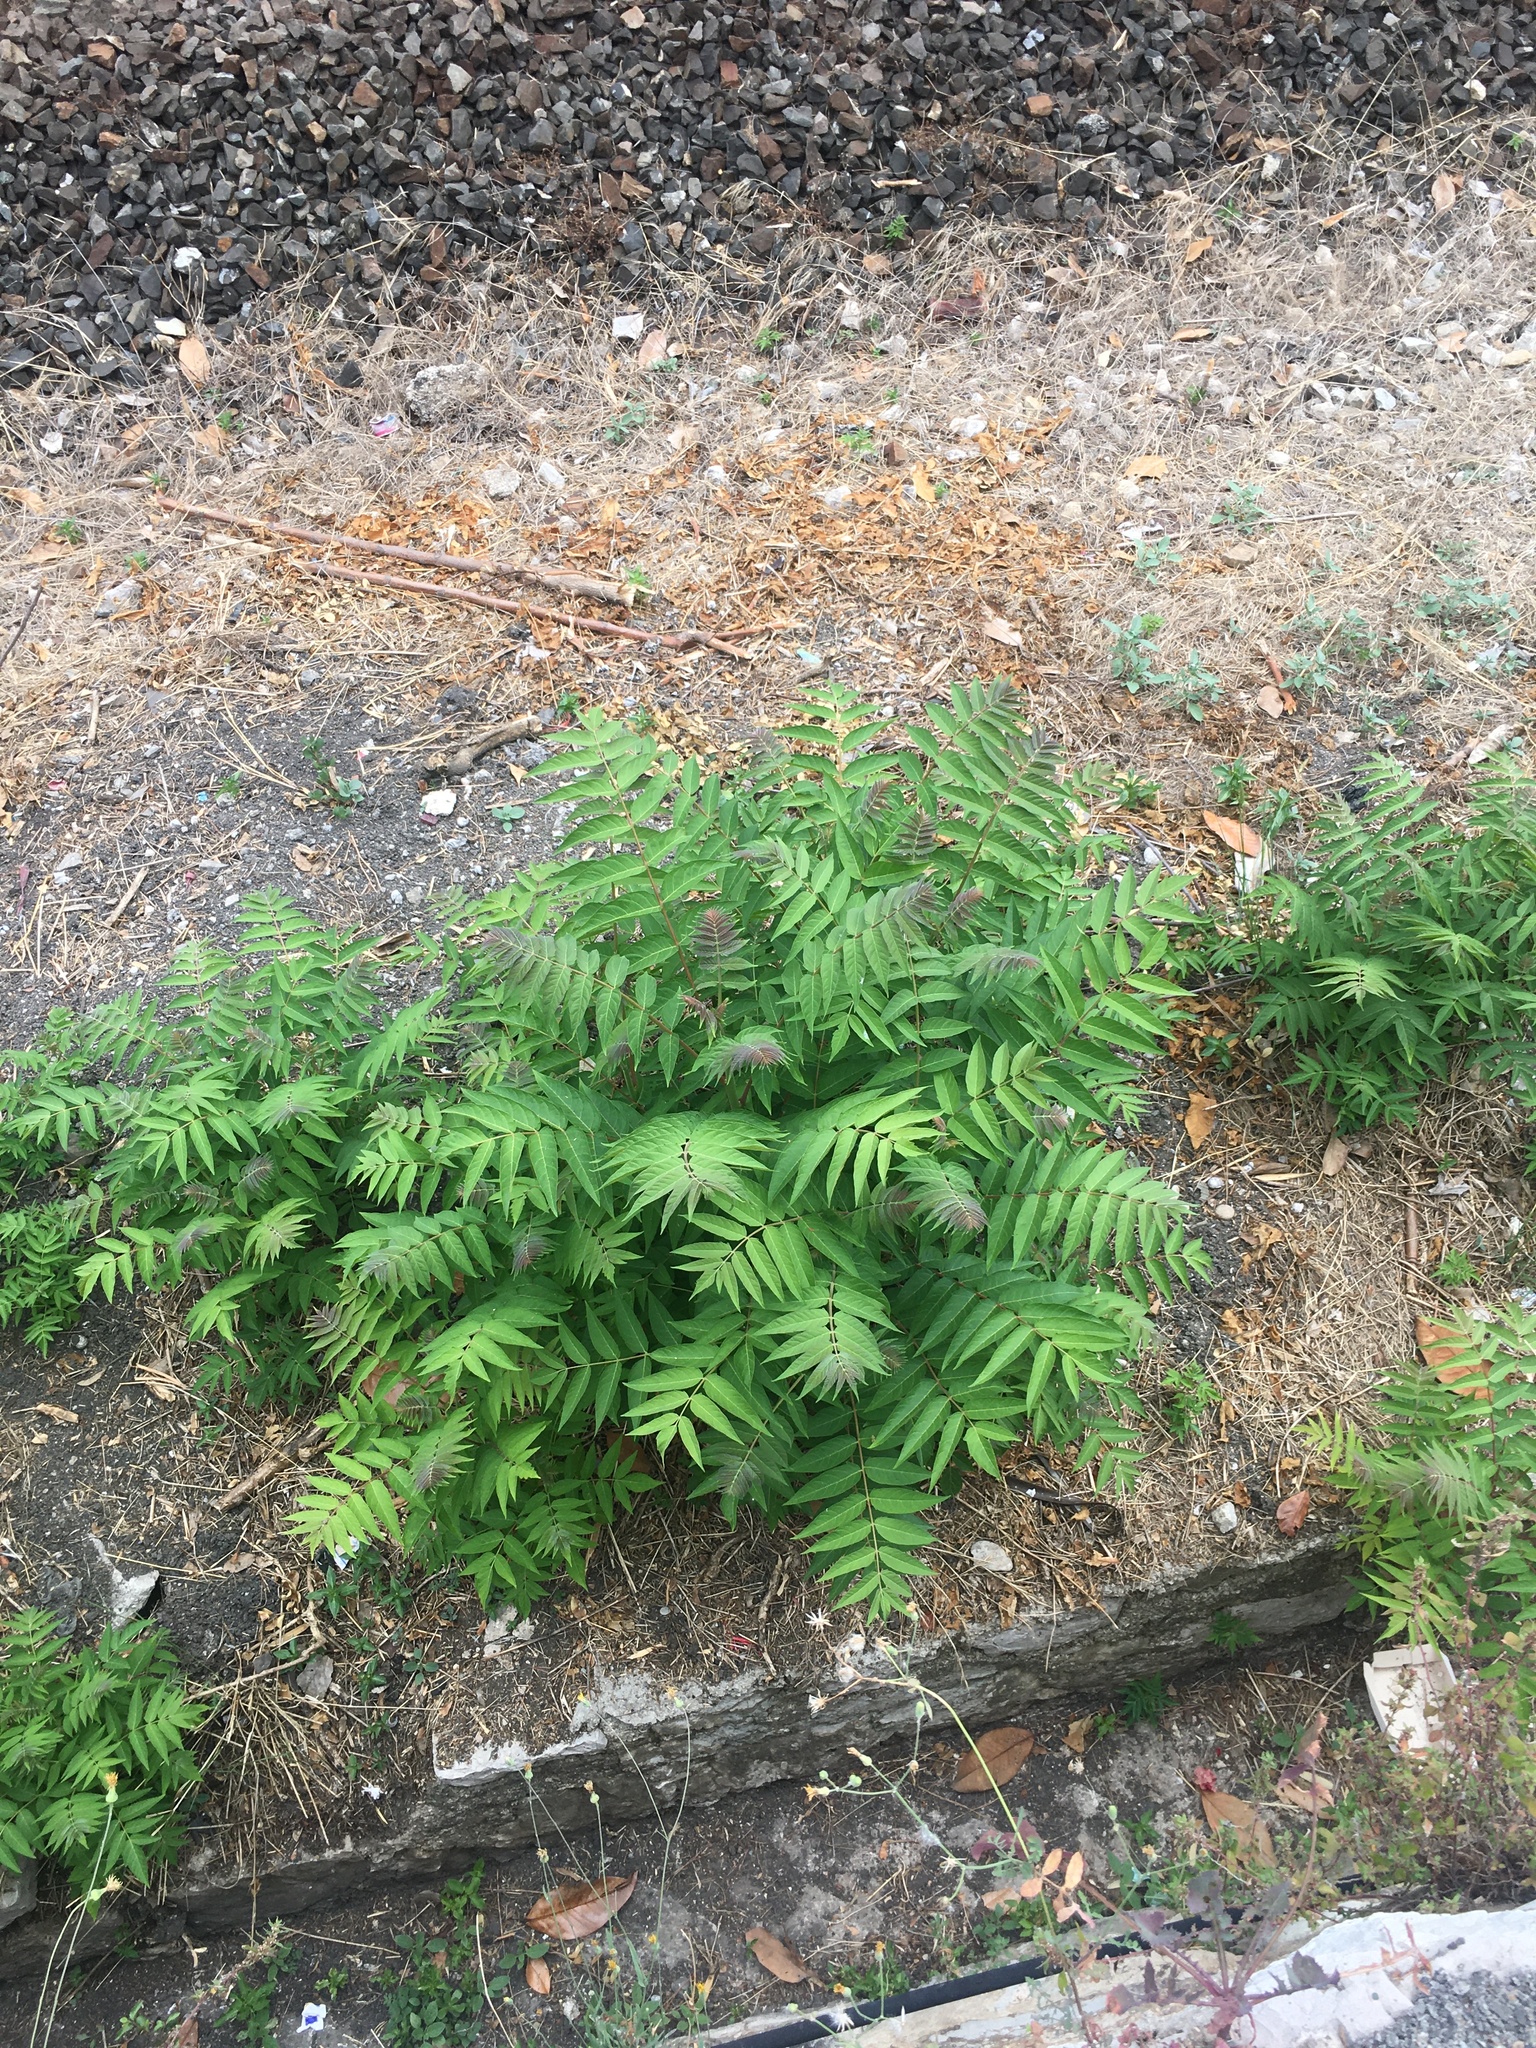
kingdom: Plantae
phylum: Tracheophyta
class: Magnoliopsida
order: Sapindales
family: Simaroubaceae
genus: Ailanthus
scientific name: Ailanthus altissima
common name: Tree-of-heaven
